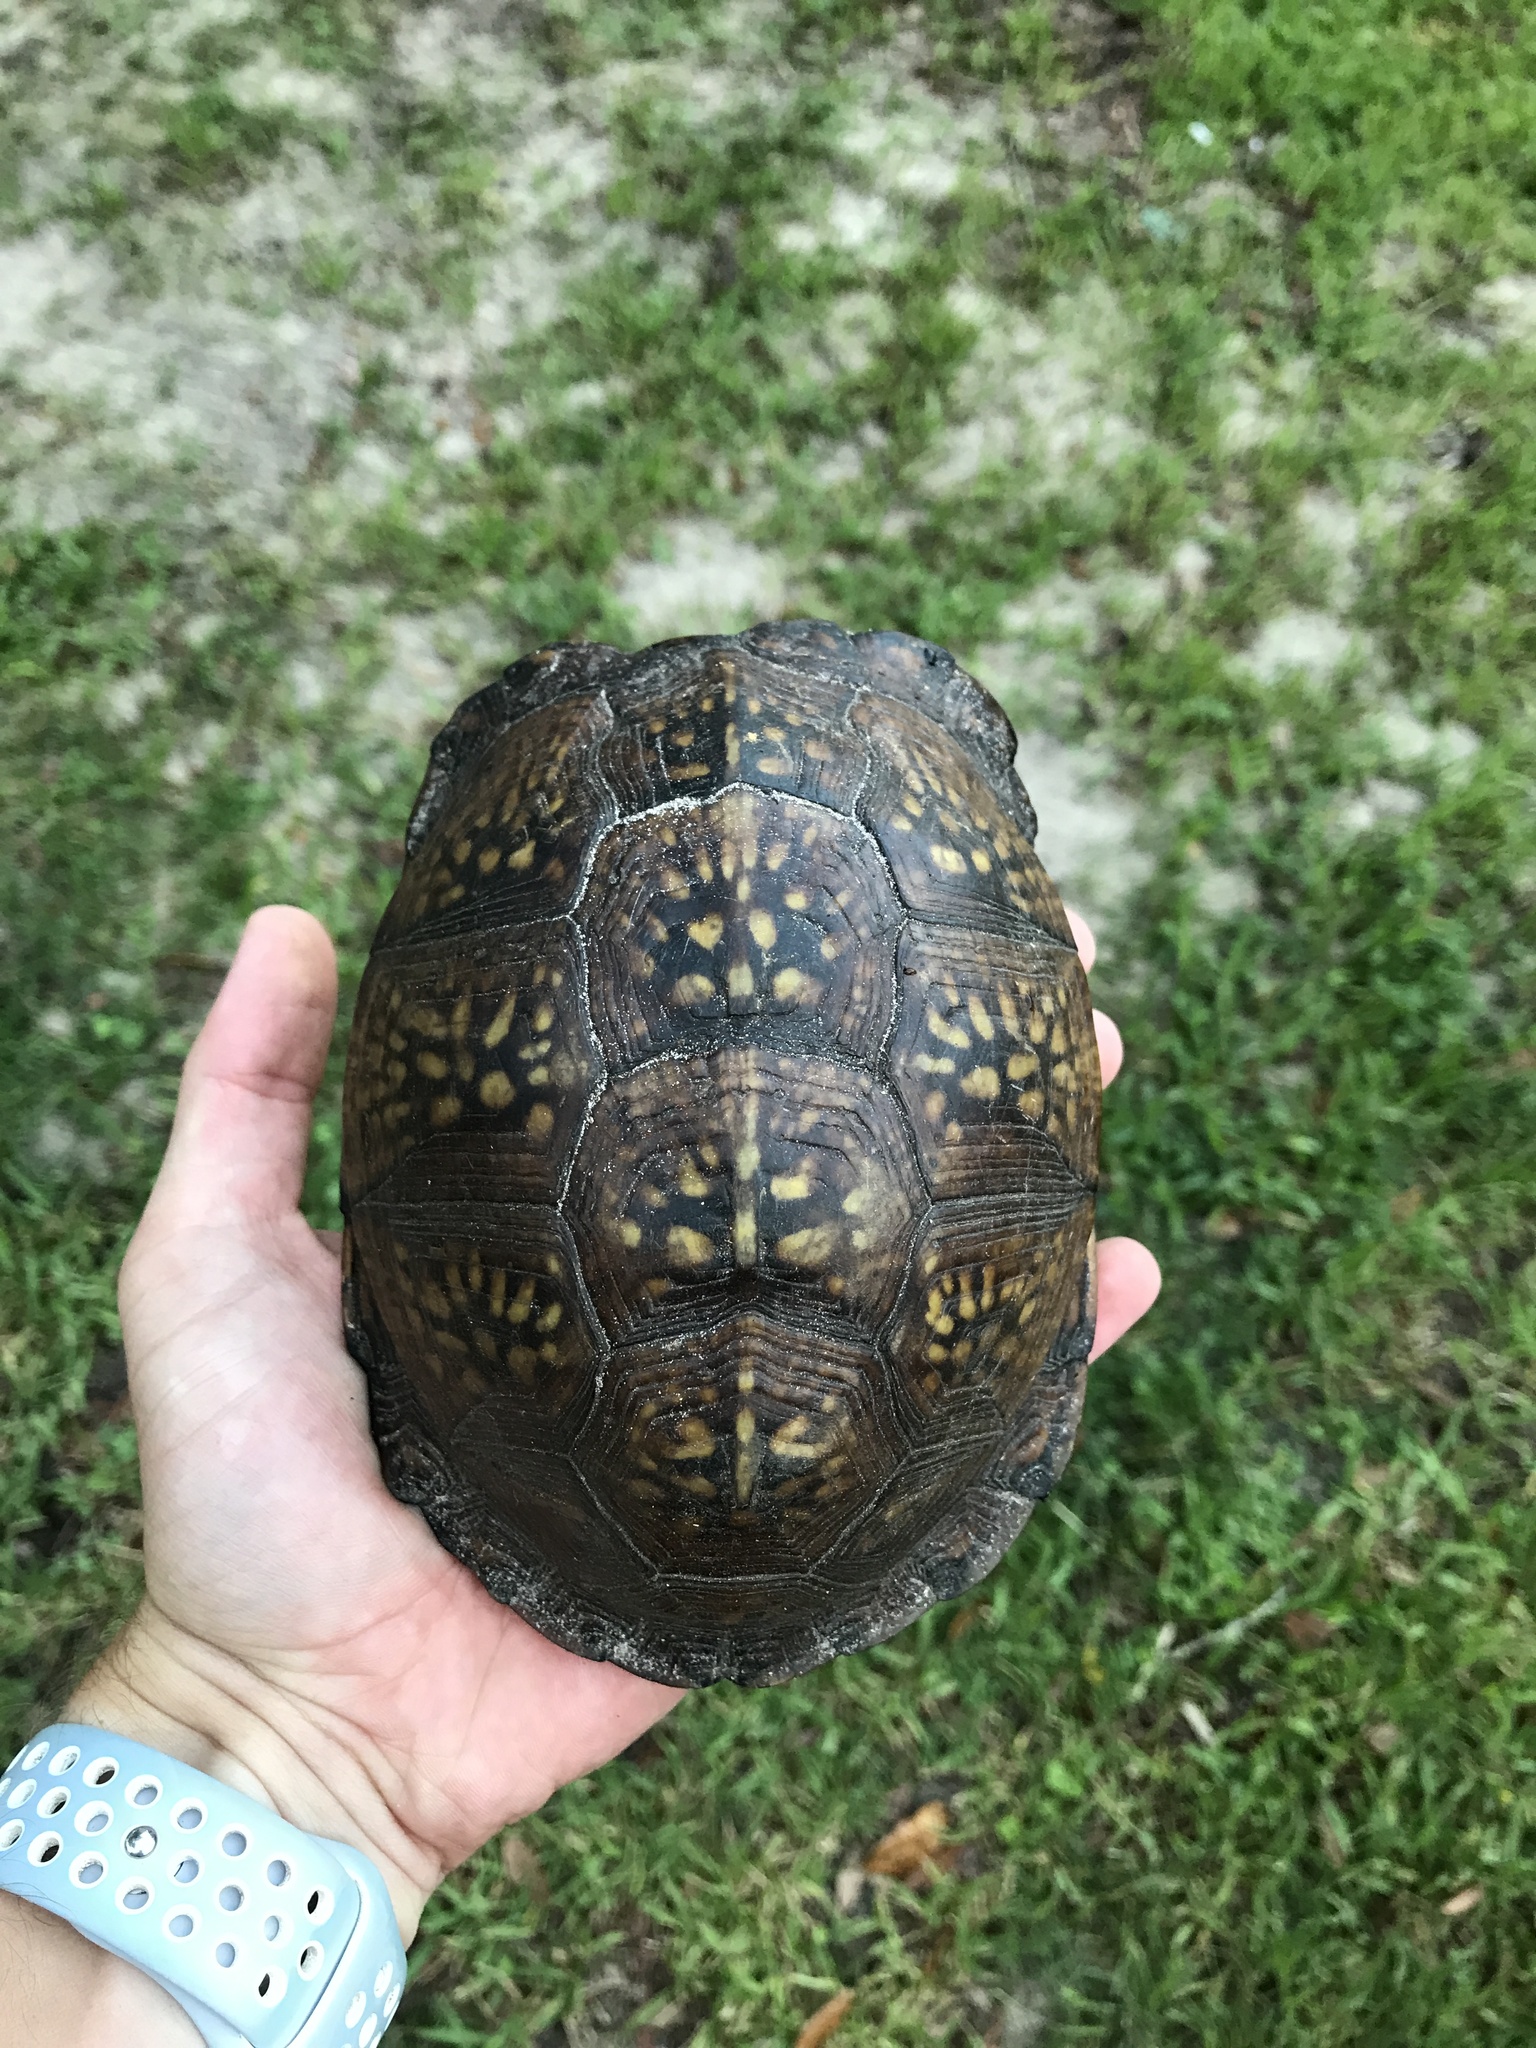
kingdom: Animalia
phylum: Chordata
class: Testudines
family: Emydidae
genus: Terrapene
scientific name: Terrapene carolina
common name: Common box turtle
